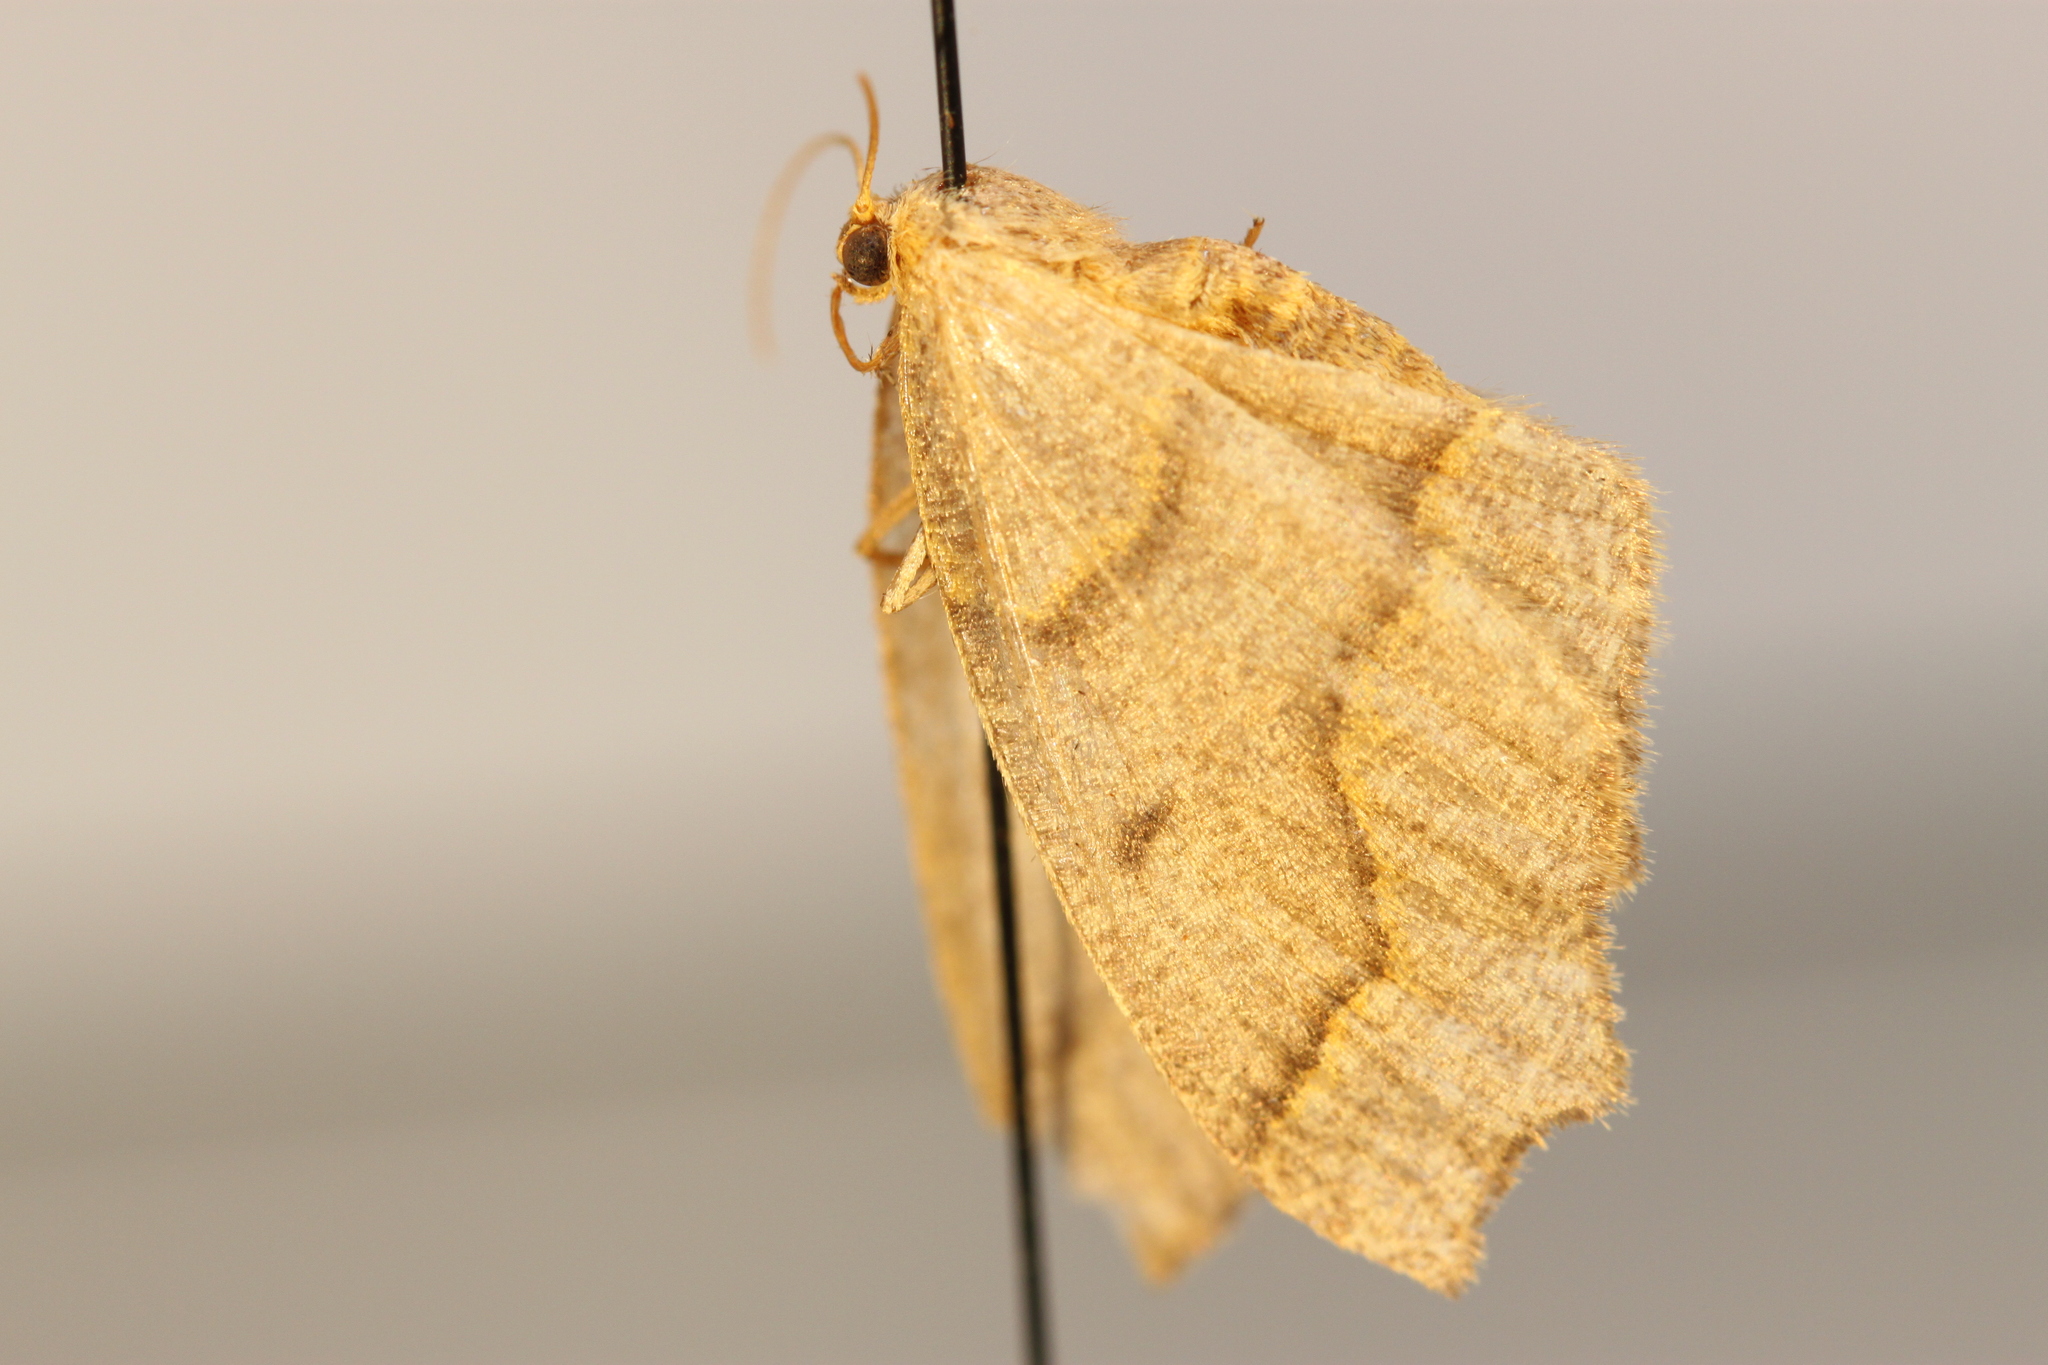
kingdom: Animalia
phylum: Arthropoda
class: Insecta
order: Lepidoptera
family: Geometridae
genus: Lambdina
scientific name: Lambdina fiscellaria
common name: Hemlock looper
